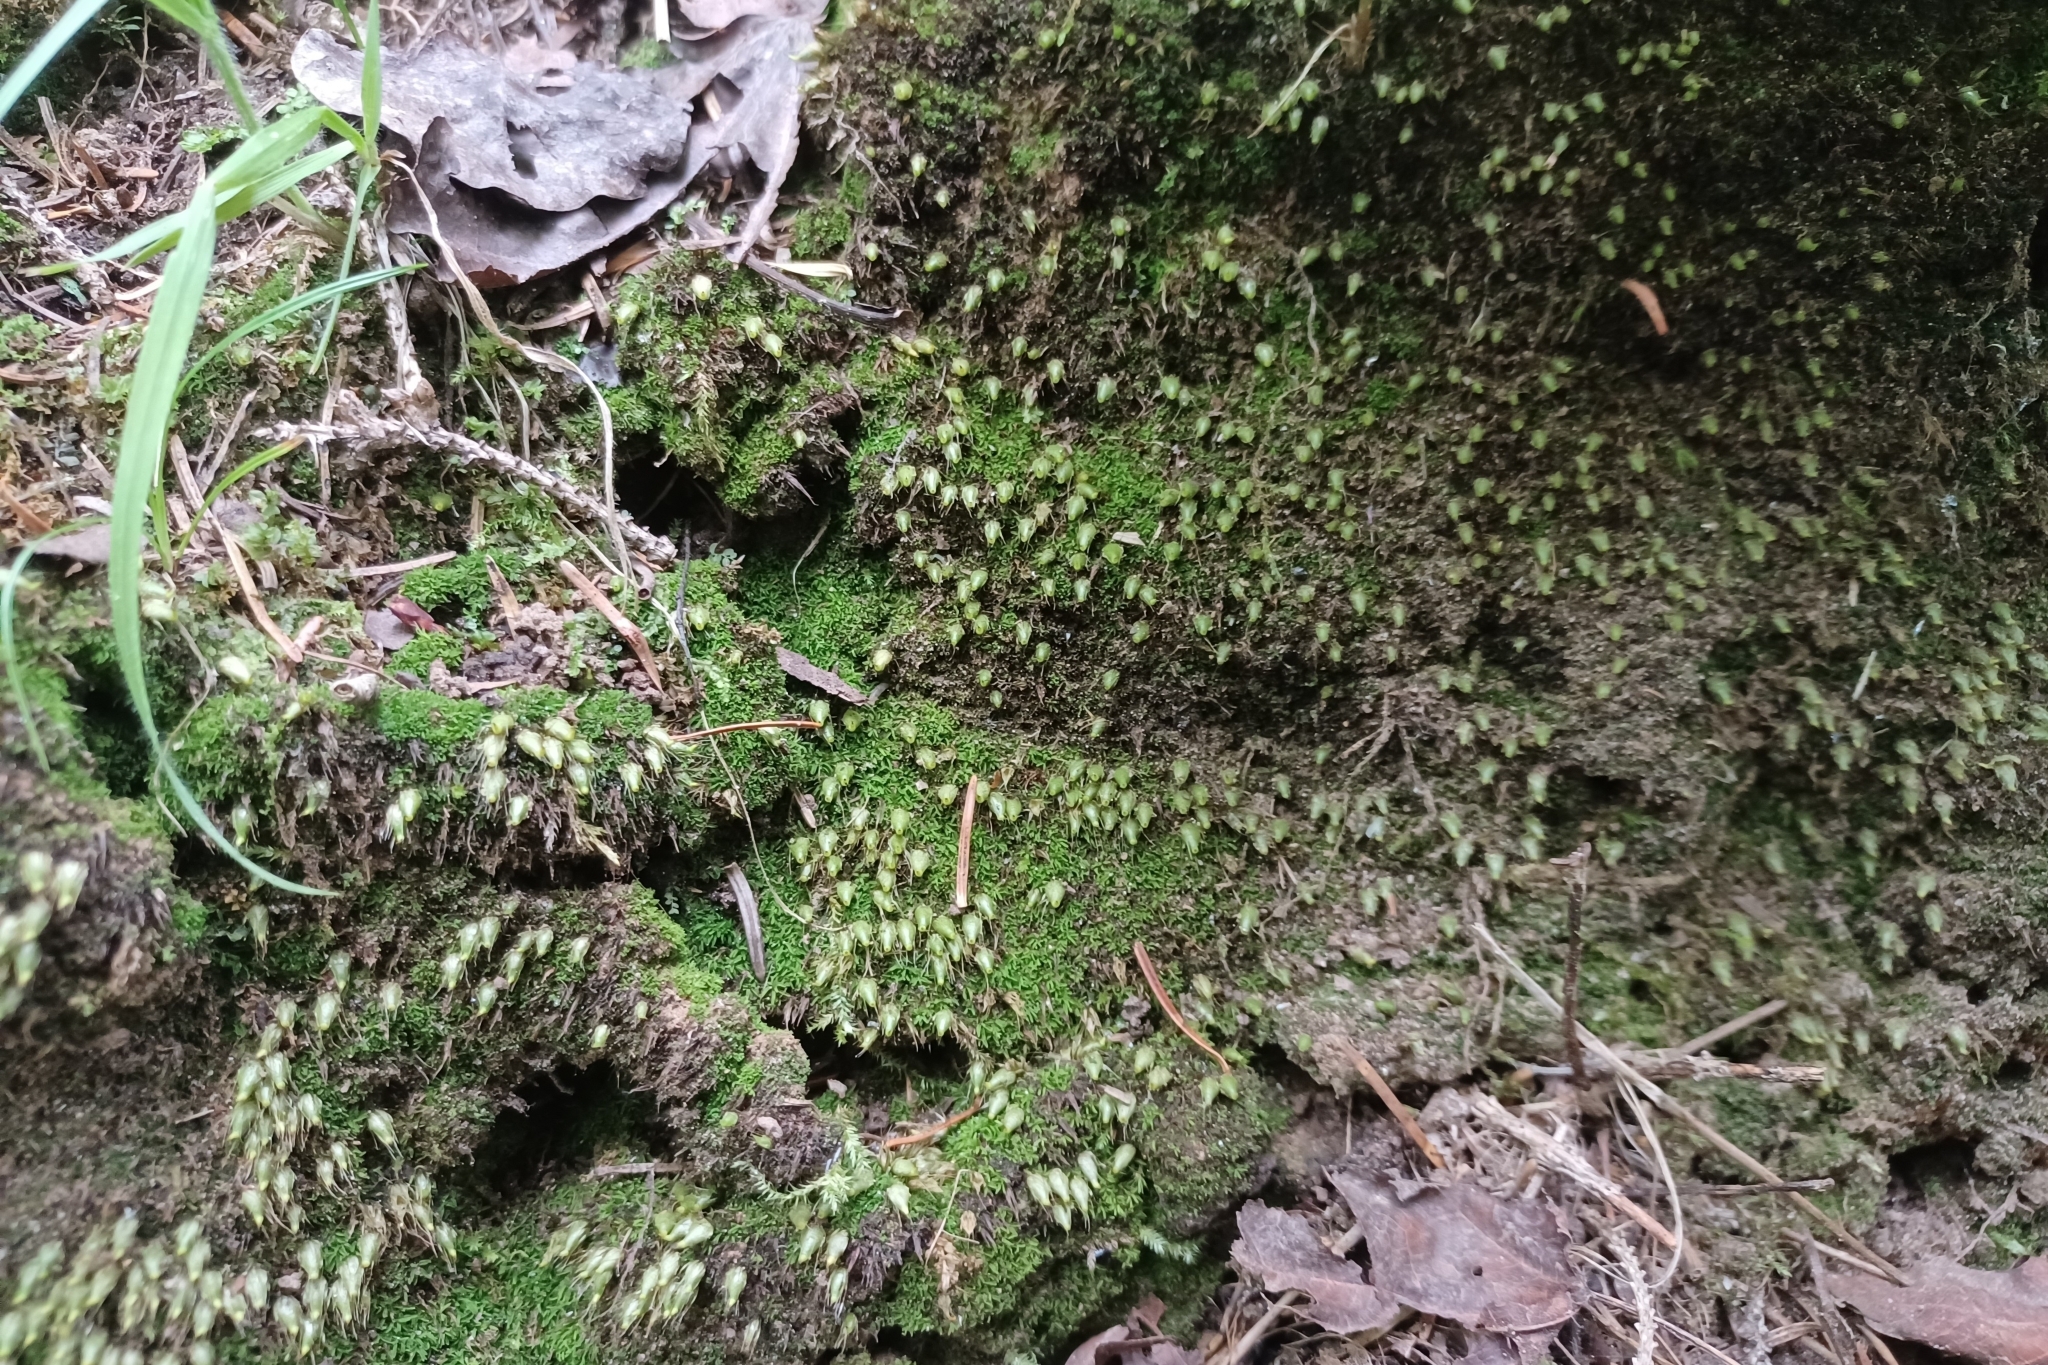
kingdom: Plantae
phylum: Bryophyta
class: Bryopsida
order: Diphysciales
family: Diphysciaceae
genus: Diphyscium
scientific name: Diphyscium foliosum
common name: Nut moss
